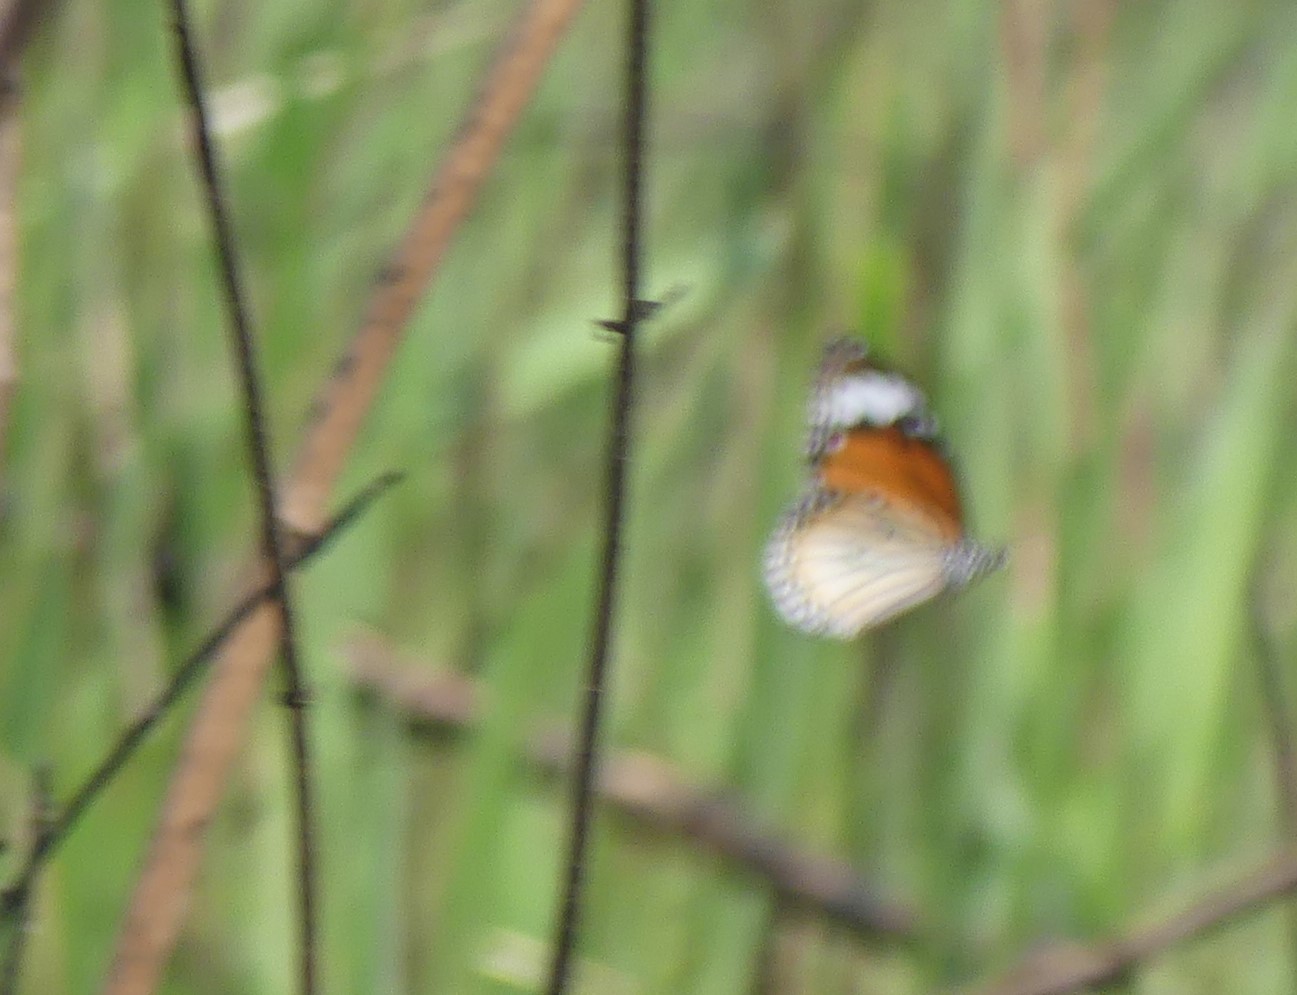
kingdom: Animalia
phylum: Arthropoda
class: Insecta
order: Lepidoptera
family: Nymphalidae
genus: Danaus
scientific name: Danaus genutia
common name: Common tiger butterfly
